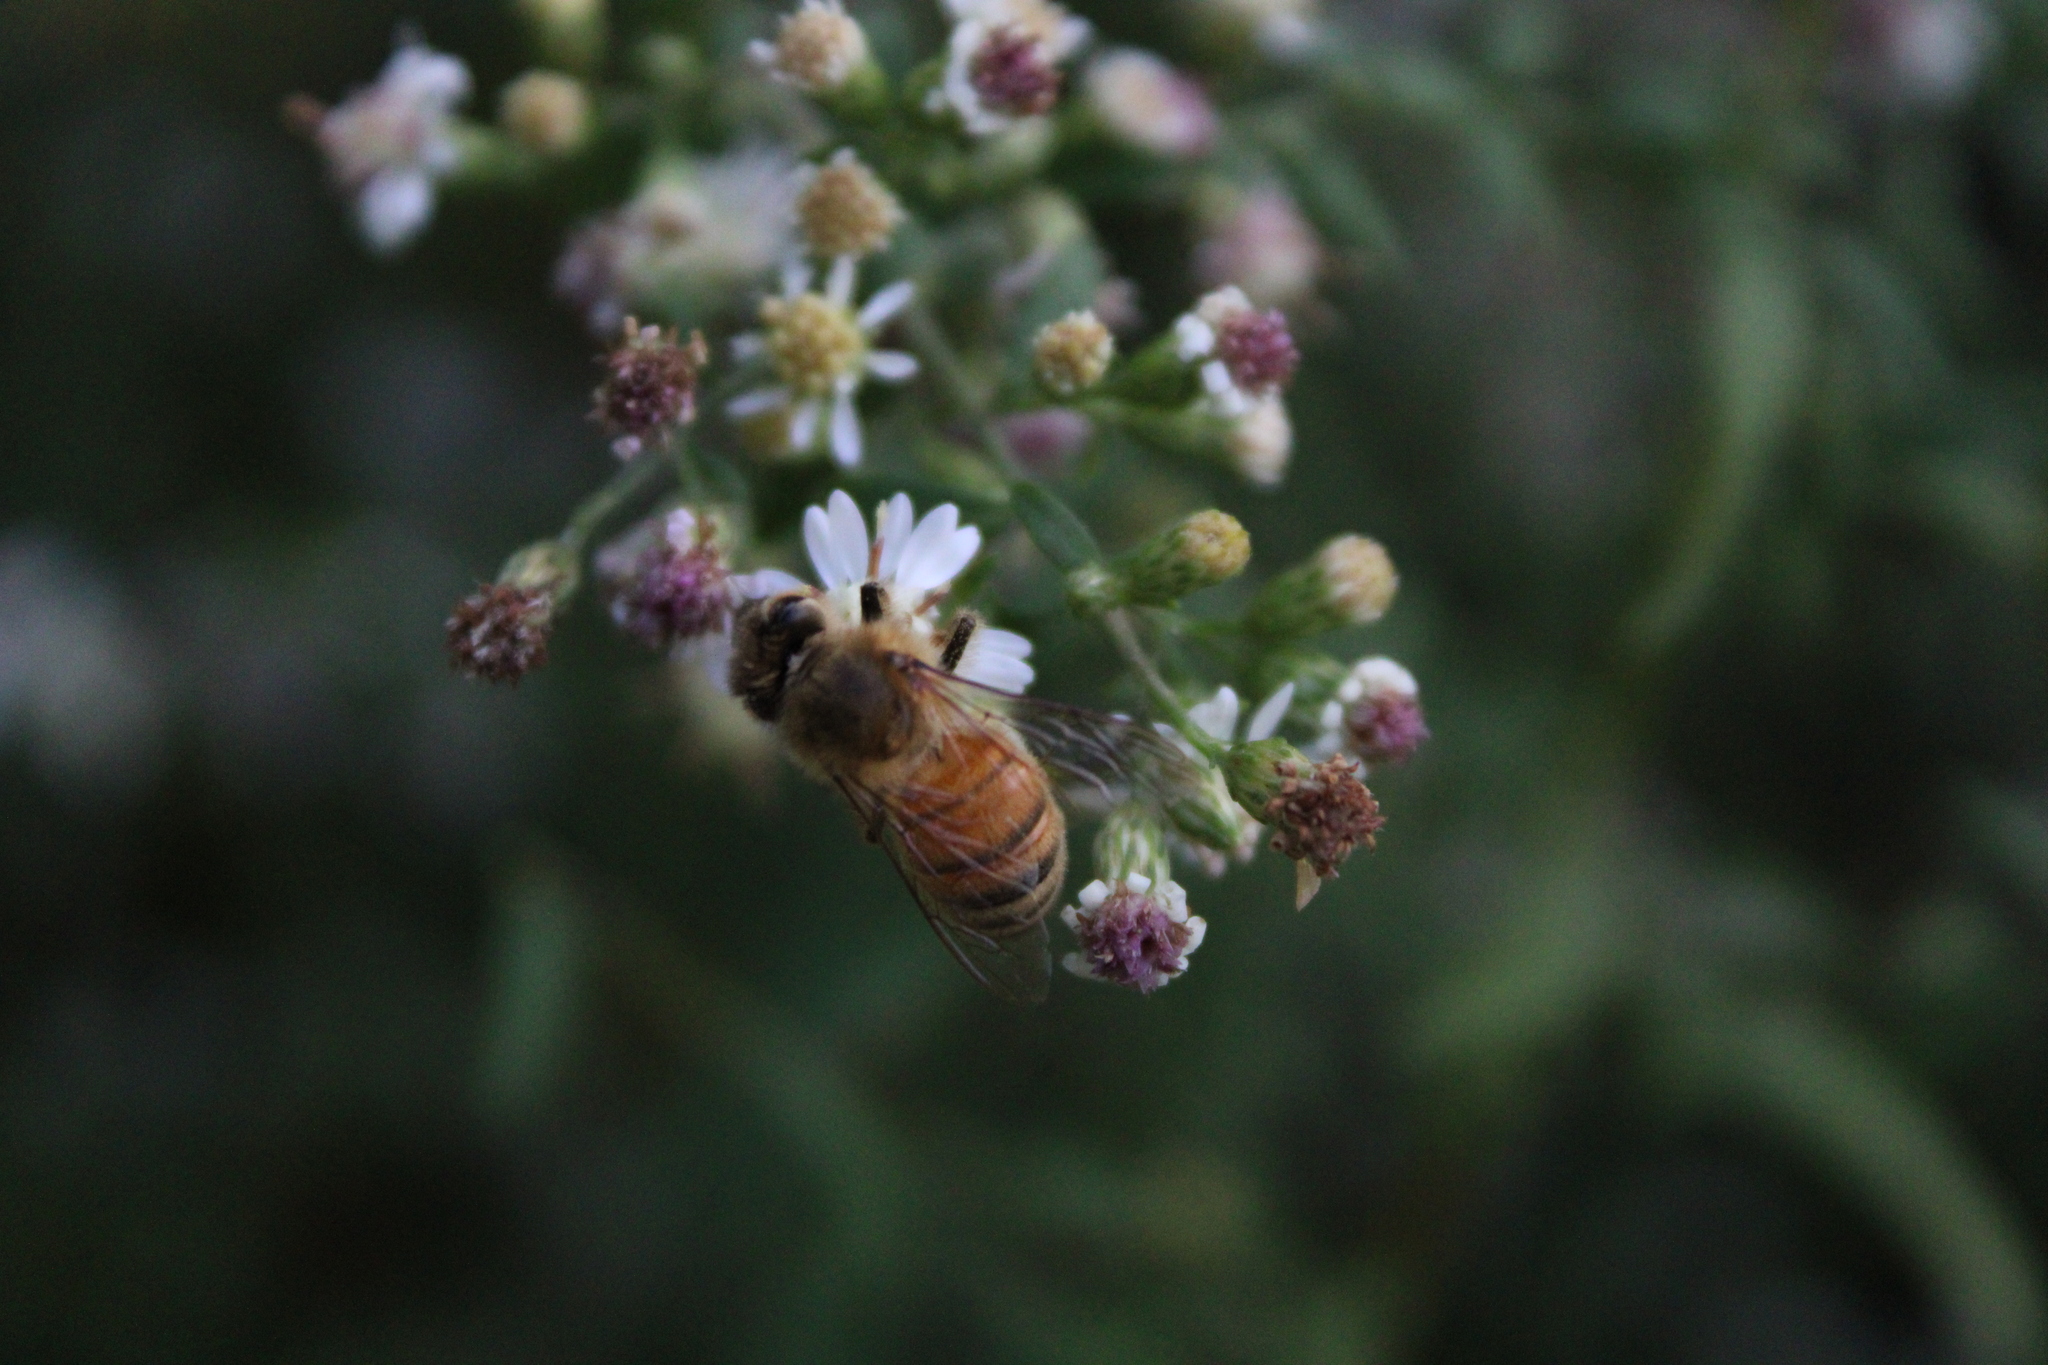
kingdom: Animalia
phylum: Arthropoda
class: Insecta
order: Hymenoptera
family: Apidae
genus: Apis
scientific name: Apis mellifera
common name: Honey bee
